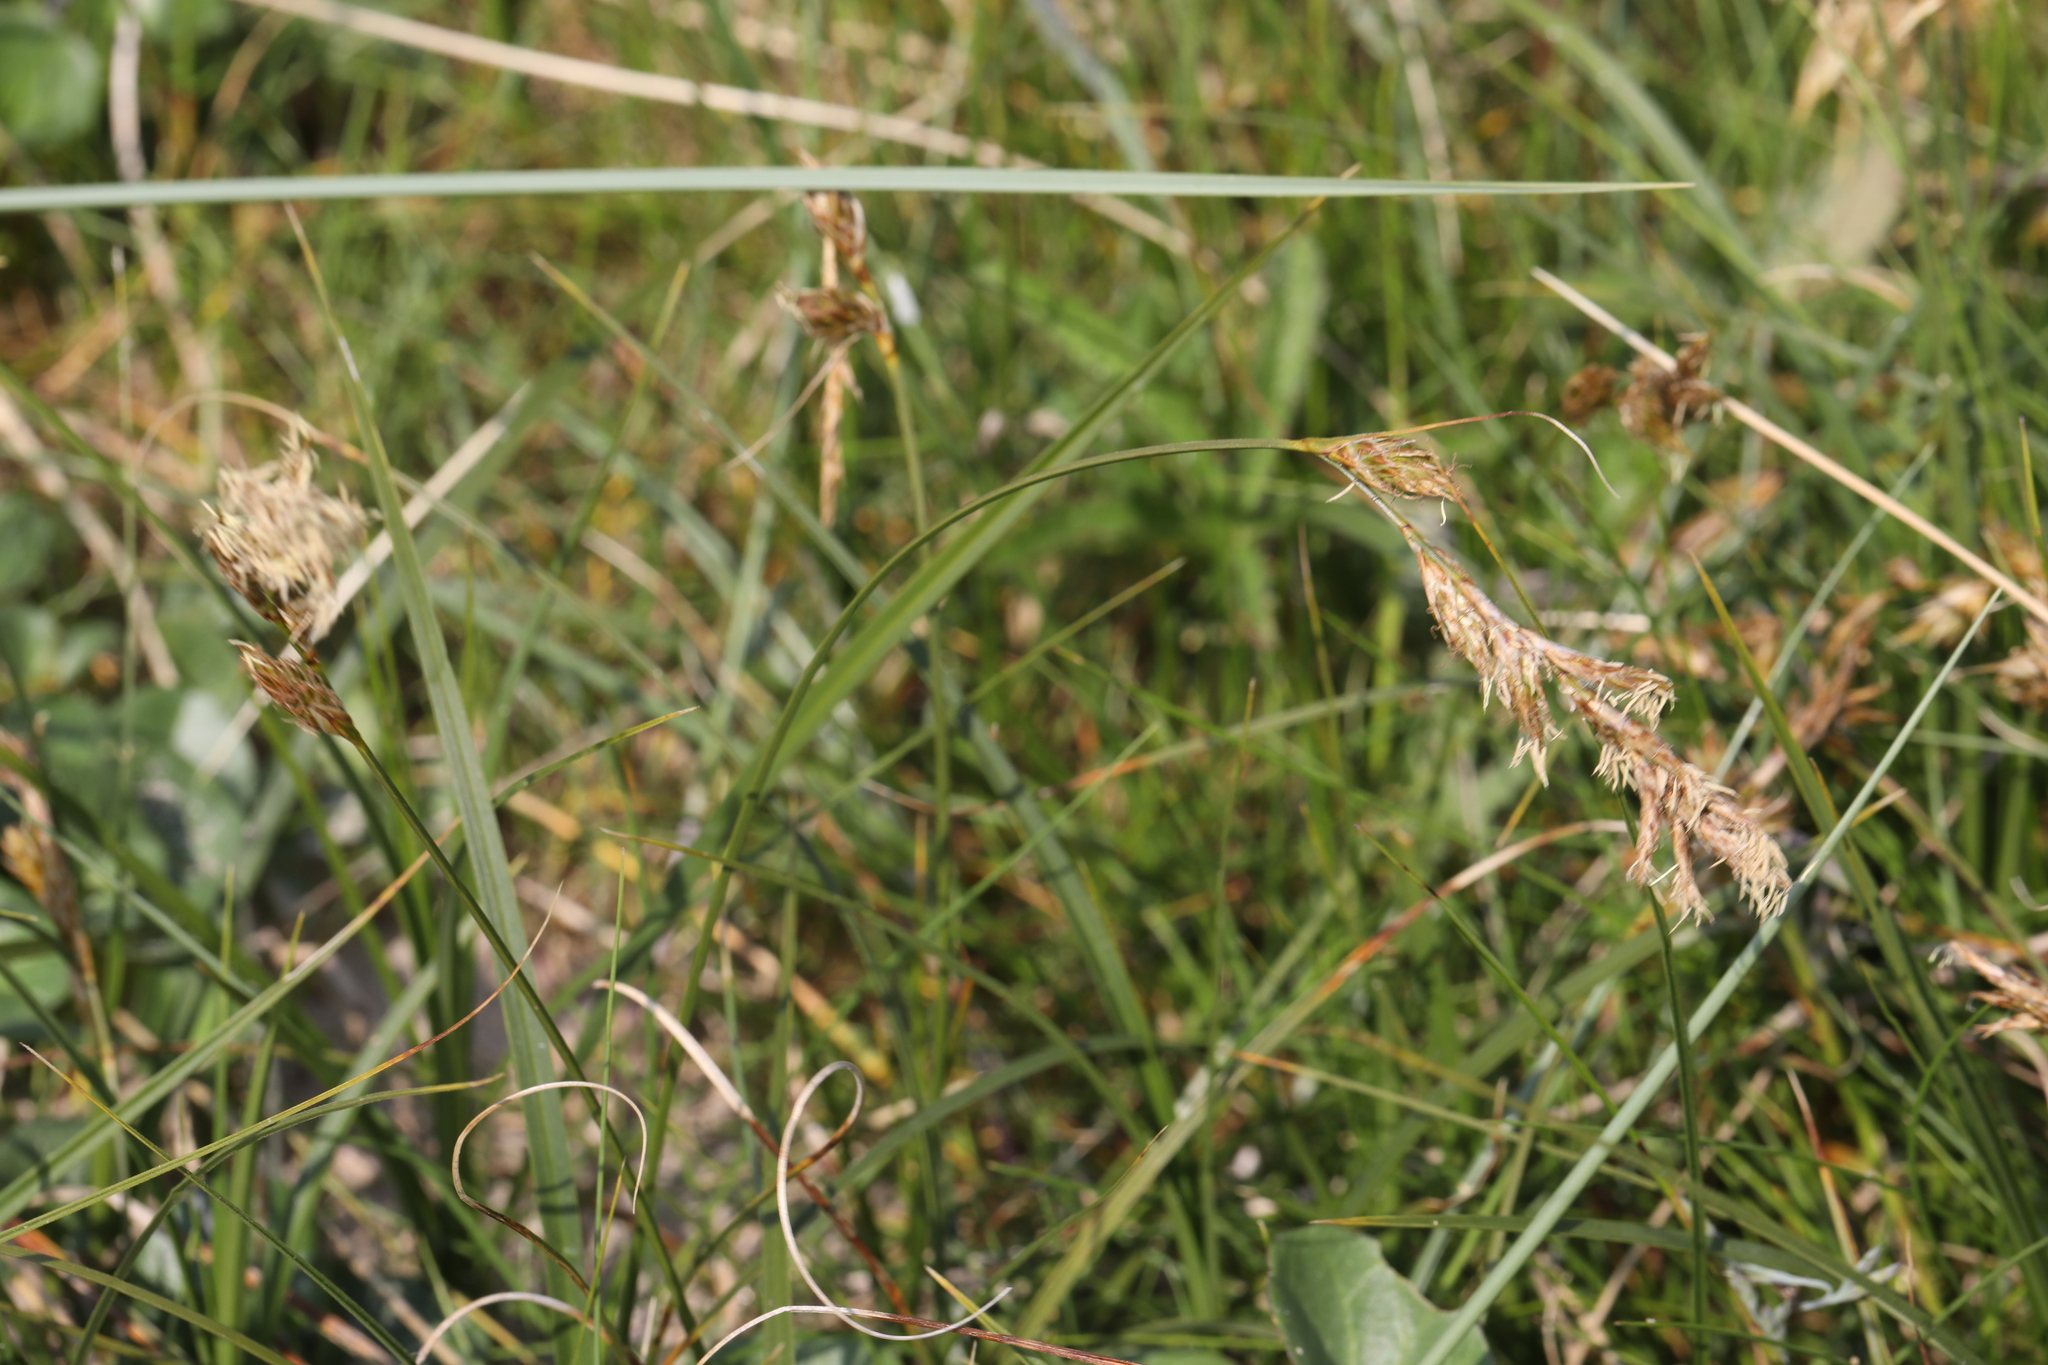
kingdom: Plantae
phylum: Tracheophyta
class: Liliopsida
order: Poales
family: Cyperaceae
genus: Carex
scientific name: Carex arenaria
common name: Sand sedge
